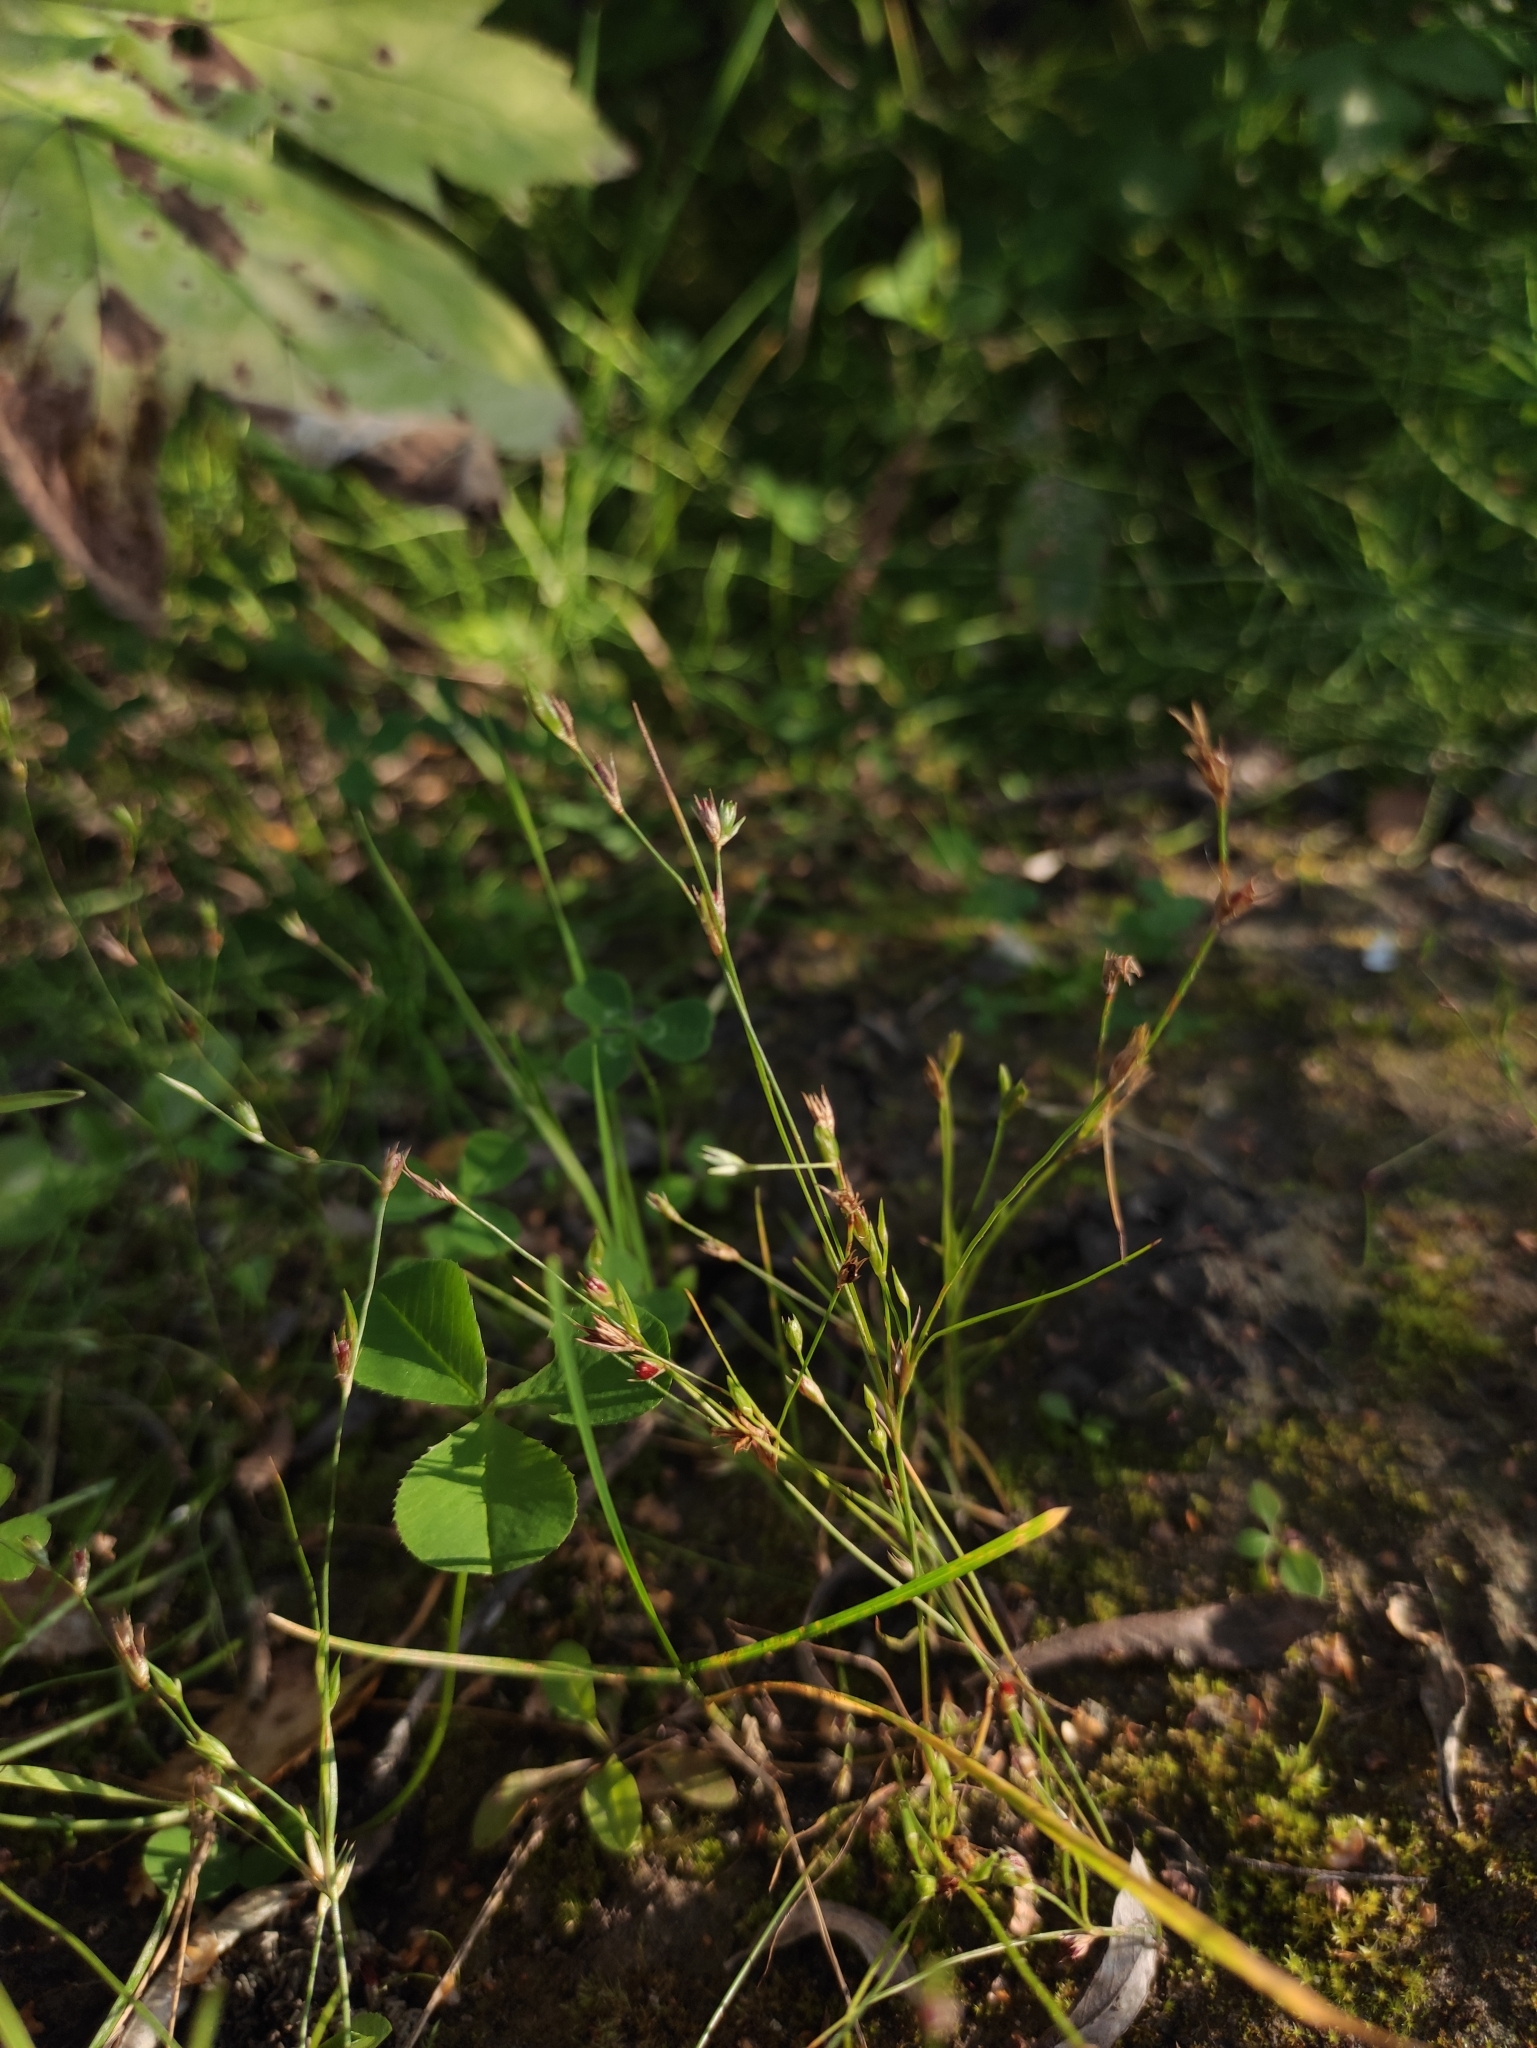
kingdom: Plantae
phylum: Tracheophyta
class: Liliopsida
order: Poales
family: Juncaceae
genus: Juncus
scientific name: Juncus bufonius
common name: Toad rush
